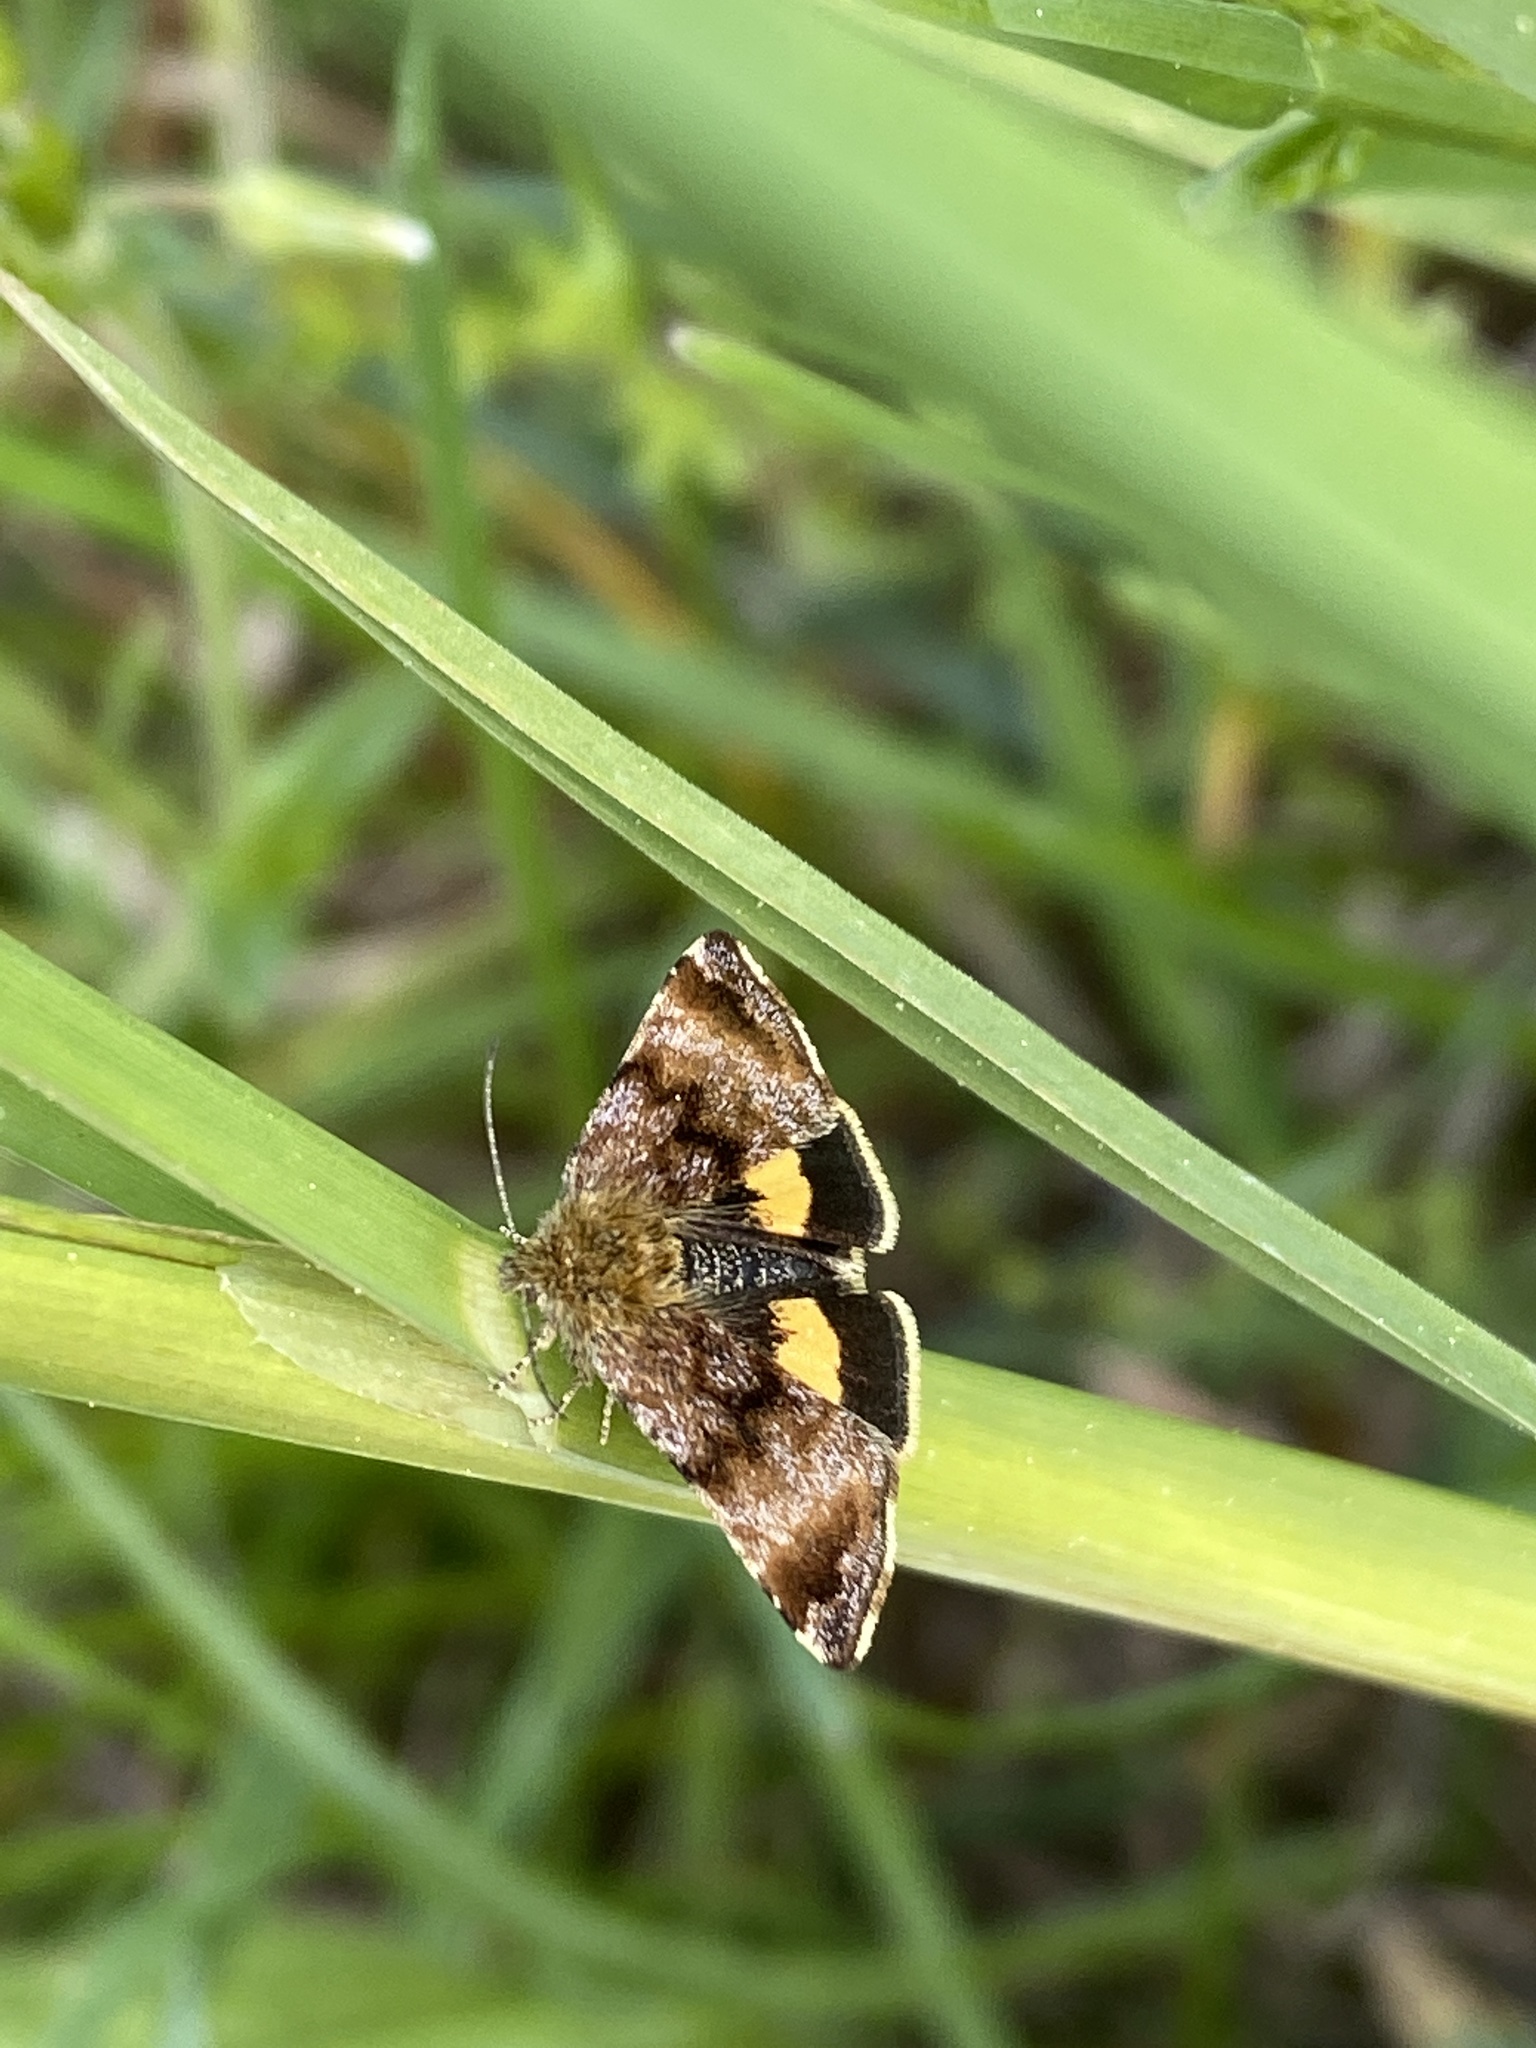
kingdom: Animalia
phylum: Arthropoda
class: Insecta
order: Lepidoptera
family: Noctuidae
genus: Panemeria
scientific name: Panemeria tenebrata
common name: Small yellow underwing
